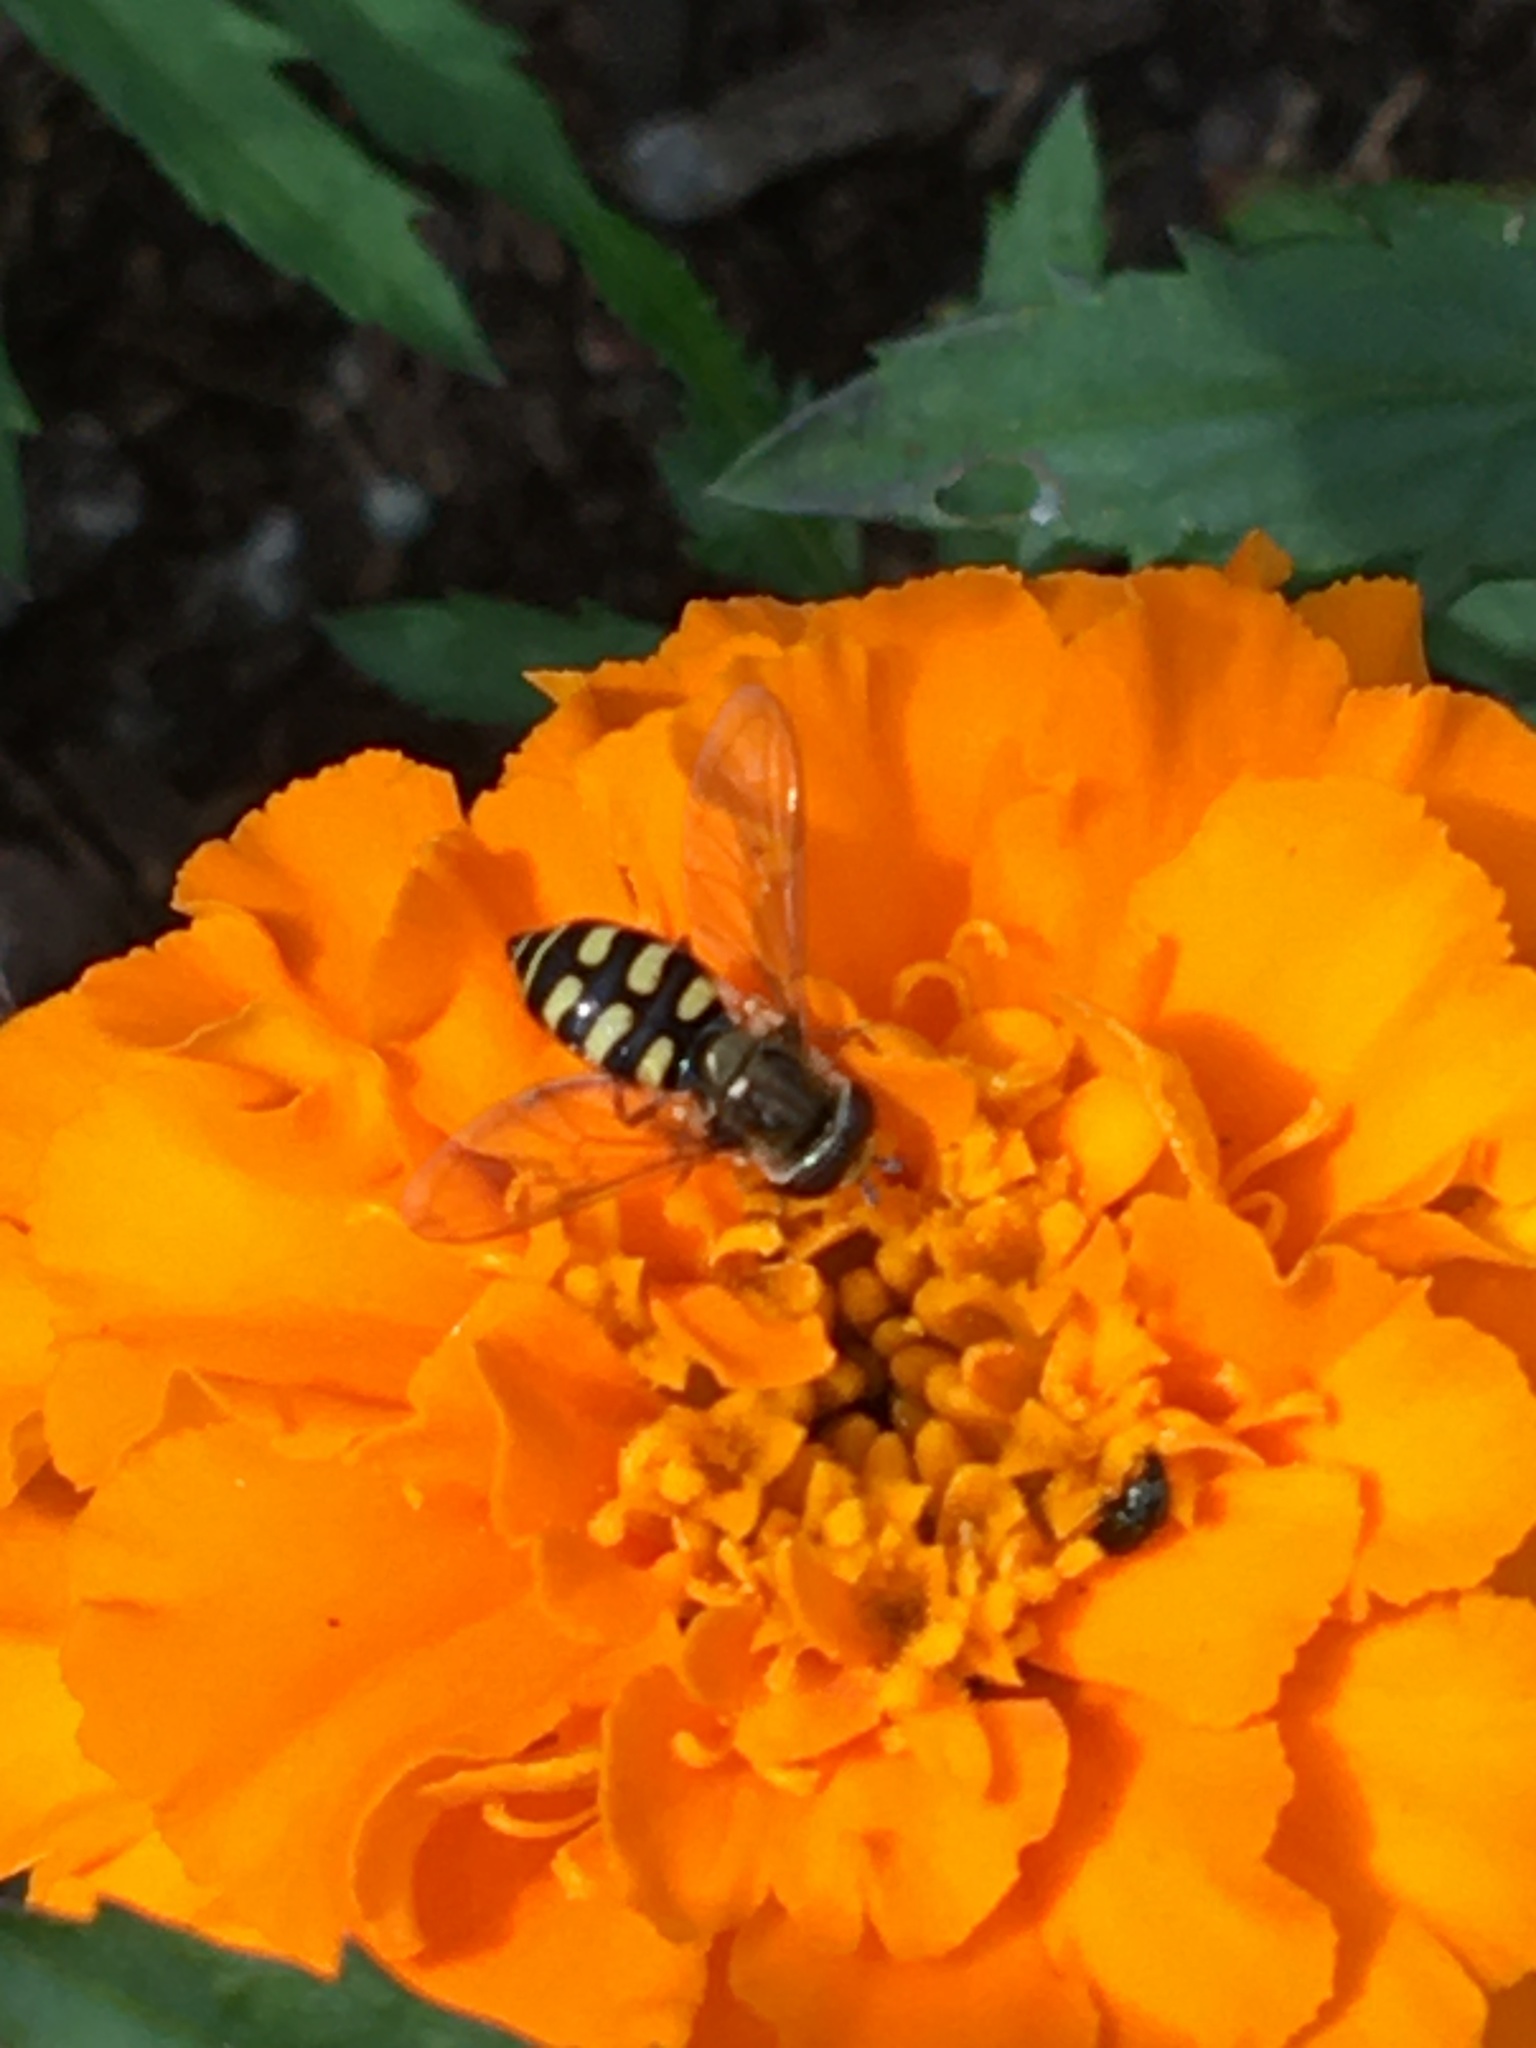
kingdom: Animalia
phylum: Arthropoda
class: Insecta
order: Diptera
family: Syrphidae
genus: Eupeodes
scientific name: Eupeodes corollae
